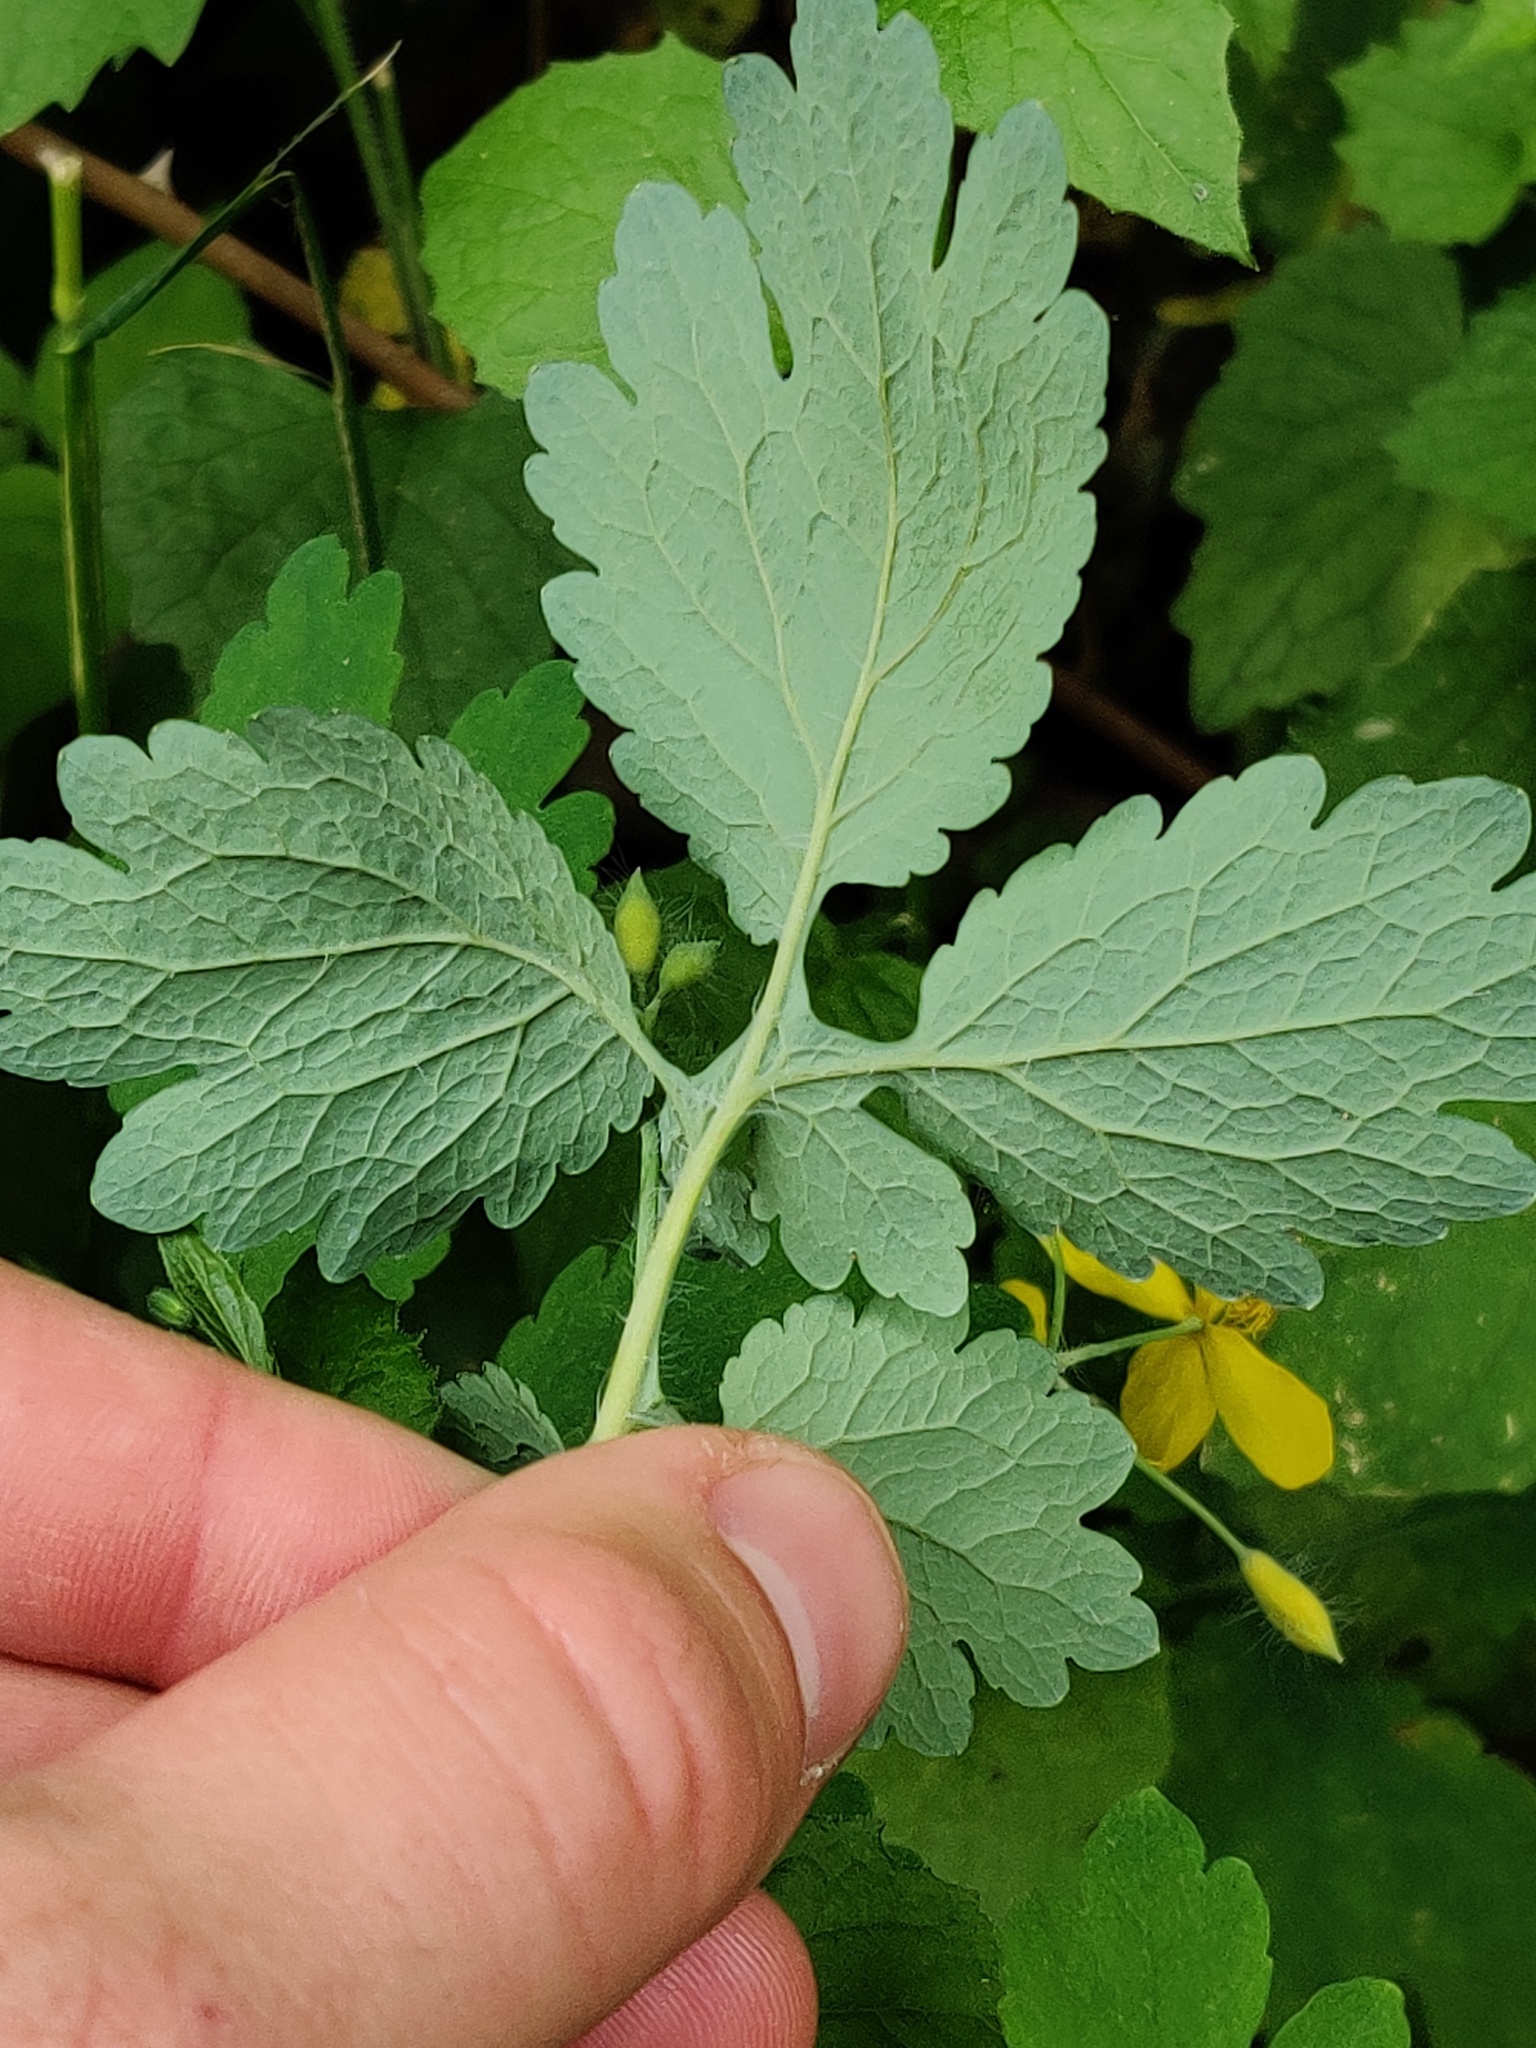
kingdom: Plantae
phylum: Tracheophyta
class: Magnoliopsida
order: Ranunculales
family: Papaveraceae
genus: Chelidonium
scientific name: Chelidonium majus
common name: Greater celandine
